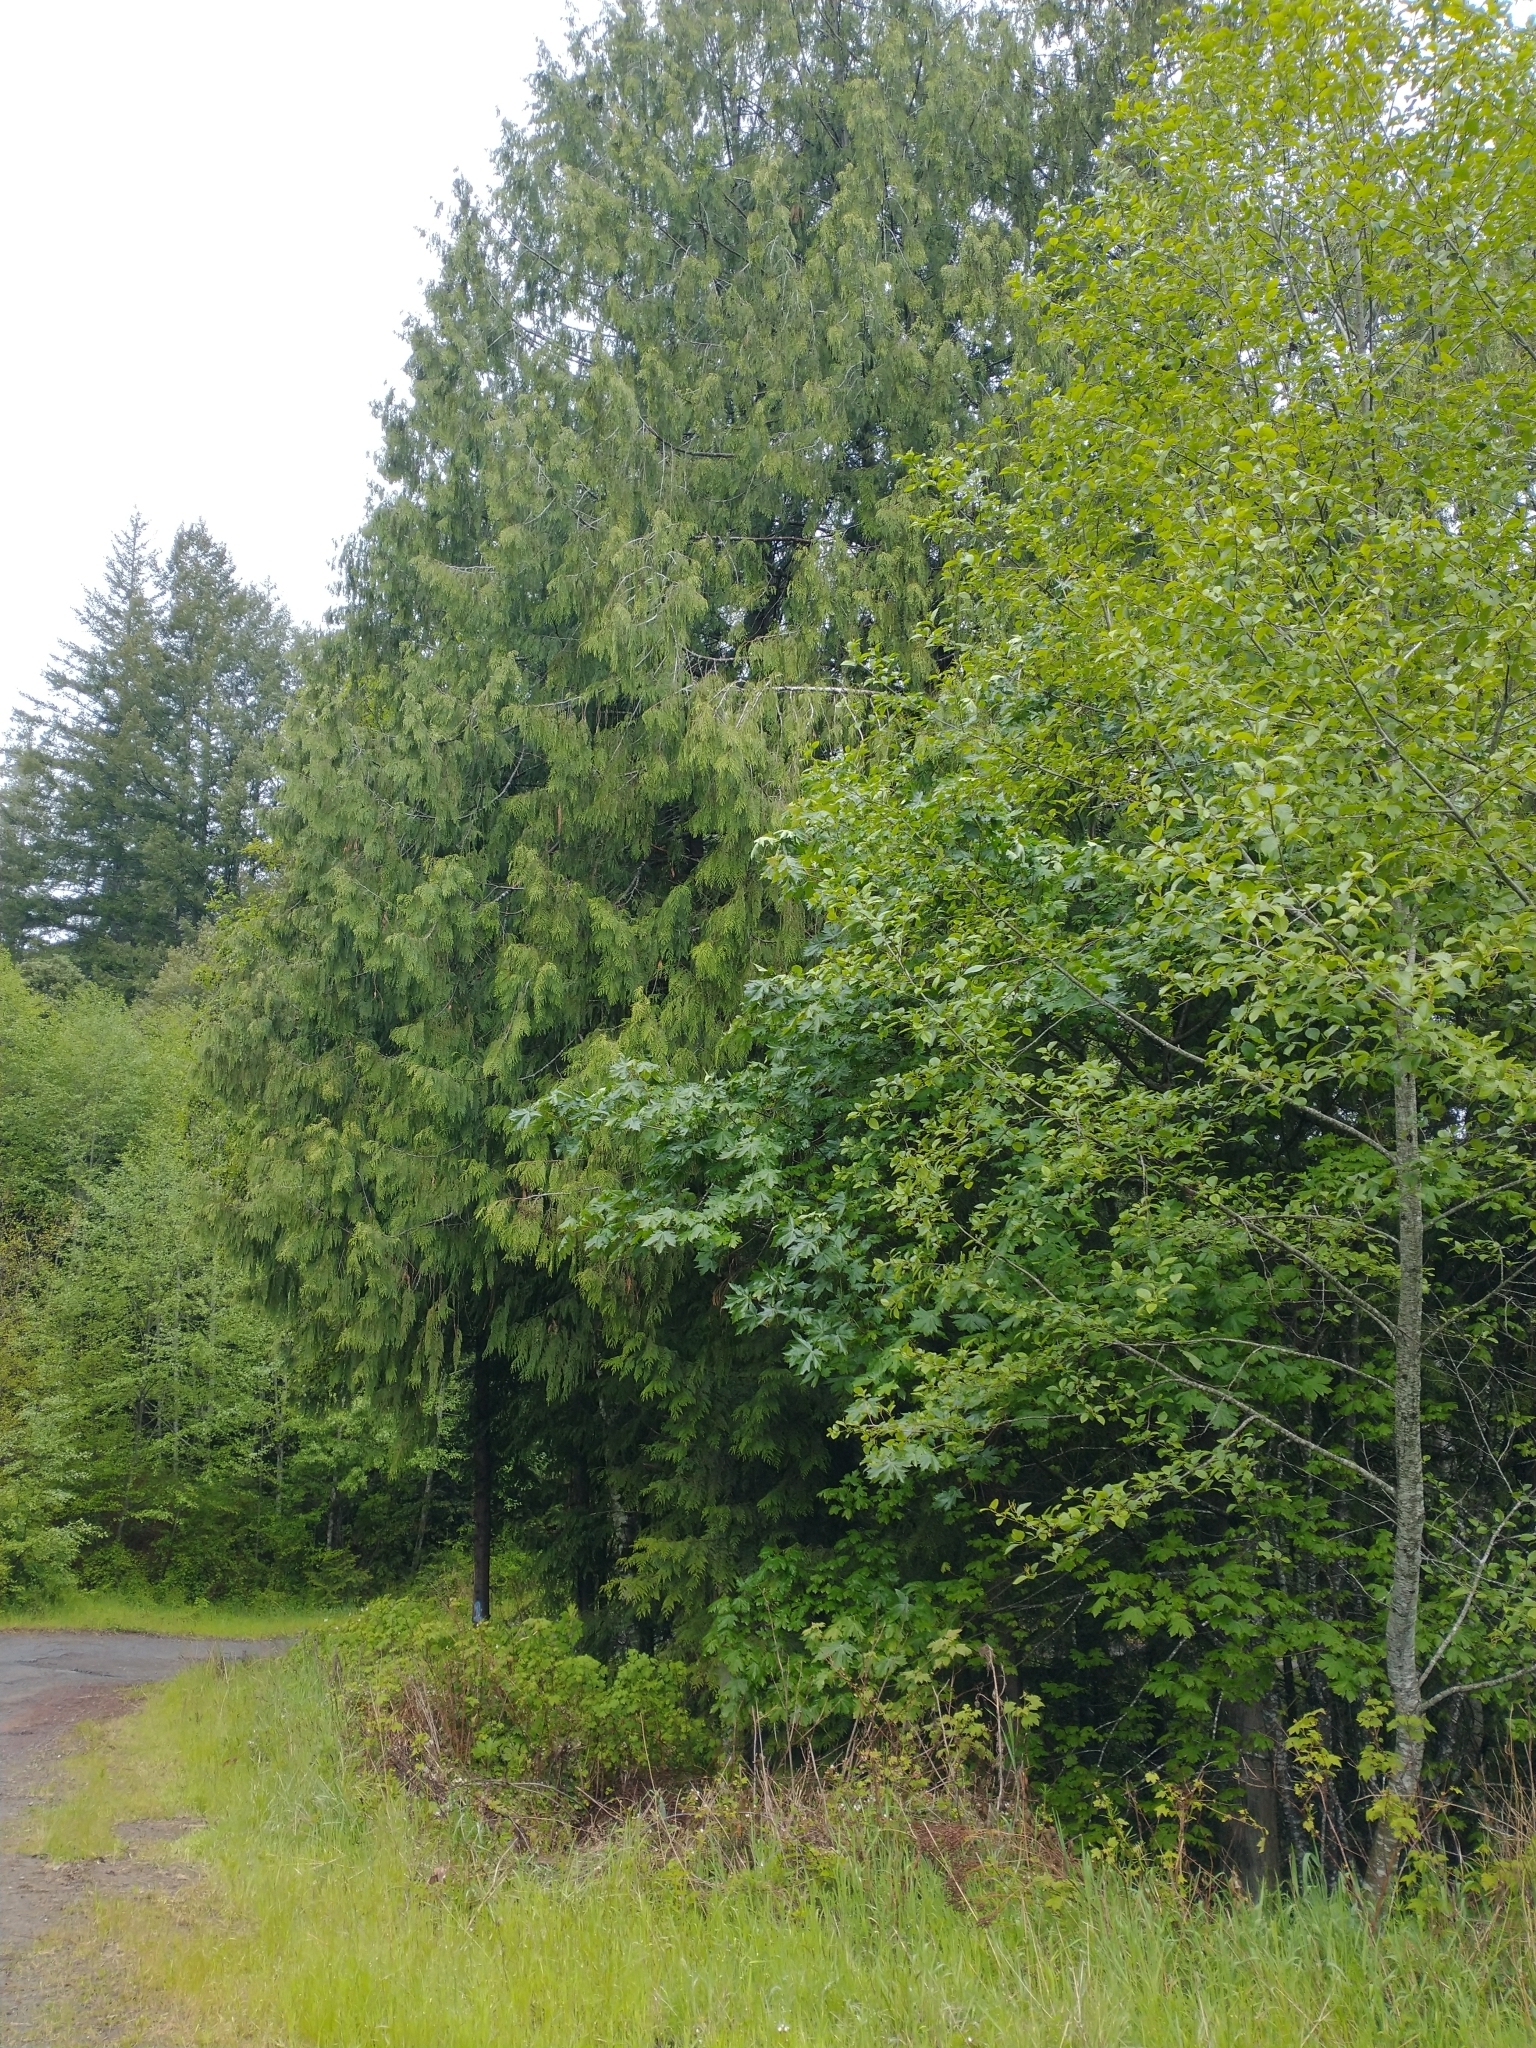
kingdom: Plantae
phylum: Tracheophyta
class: Magnoliopsida
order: Sapindales
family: Sapindaceae
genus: Acer
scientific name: Acer macrophyllum
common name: Oregon maple
